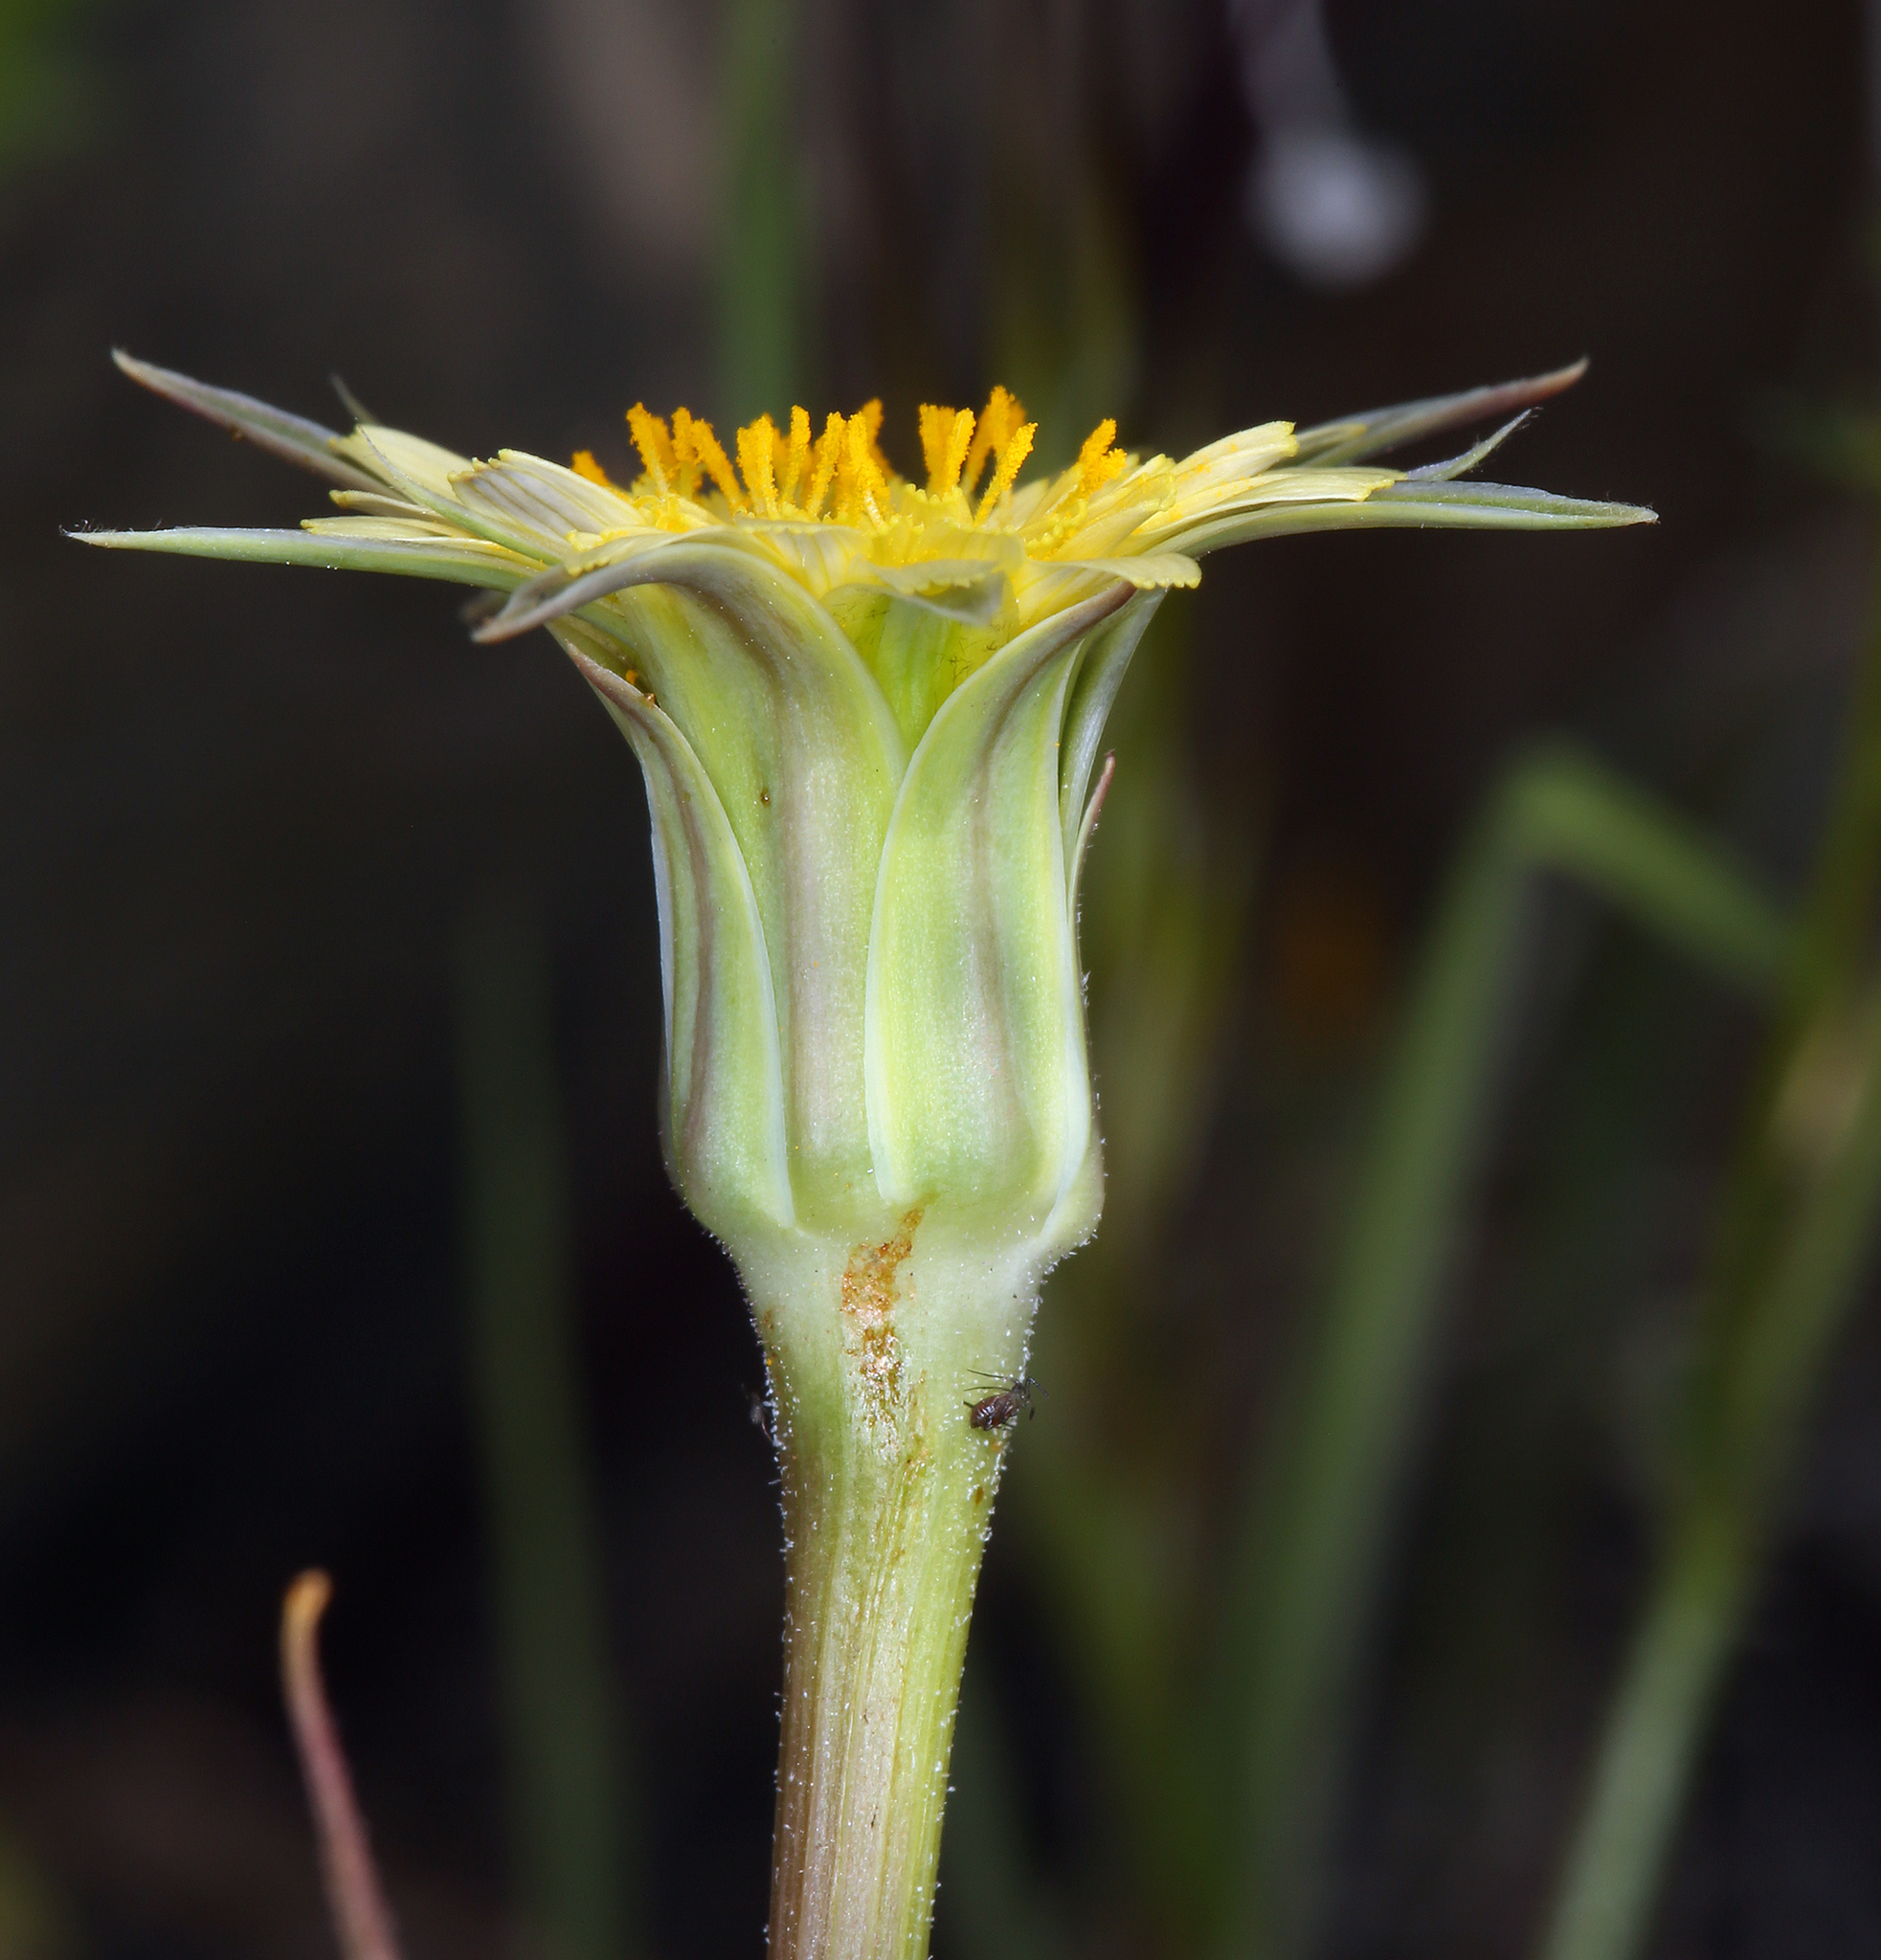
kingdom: Plantae
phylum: Tracheophyta
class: Magnoliopsida
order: Asterales
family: Asteraceae
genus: Microseris
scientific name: Microseris lindleyi
